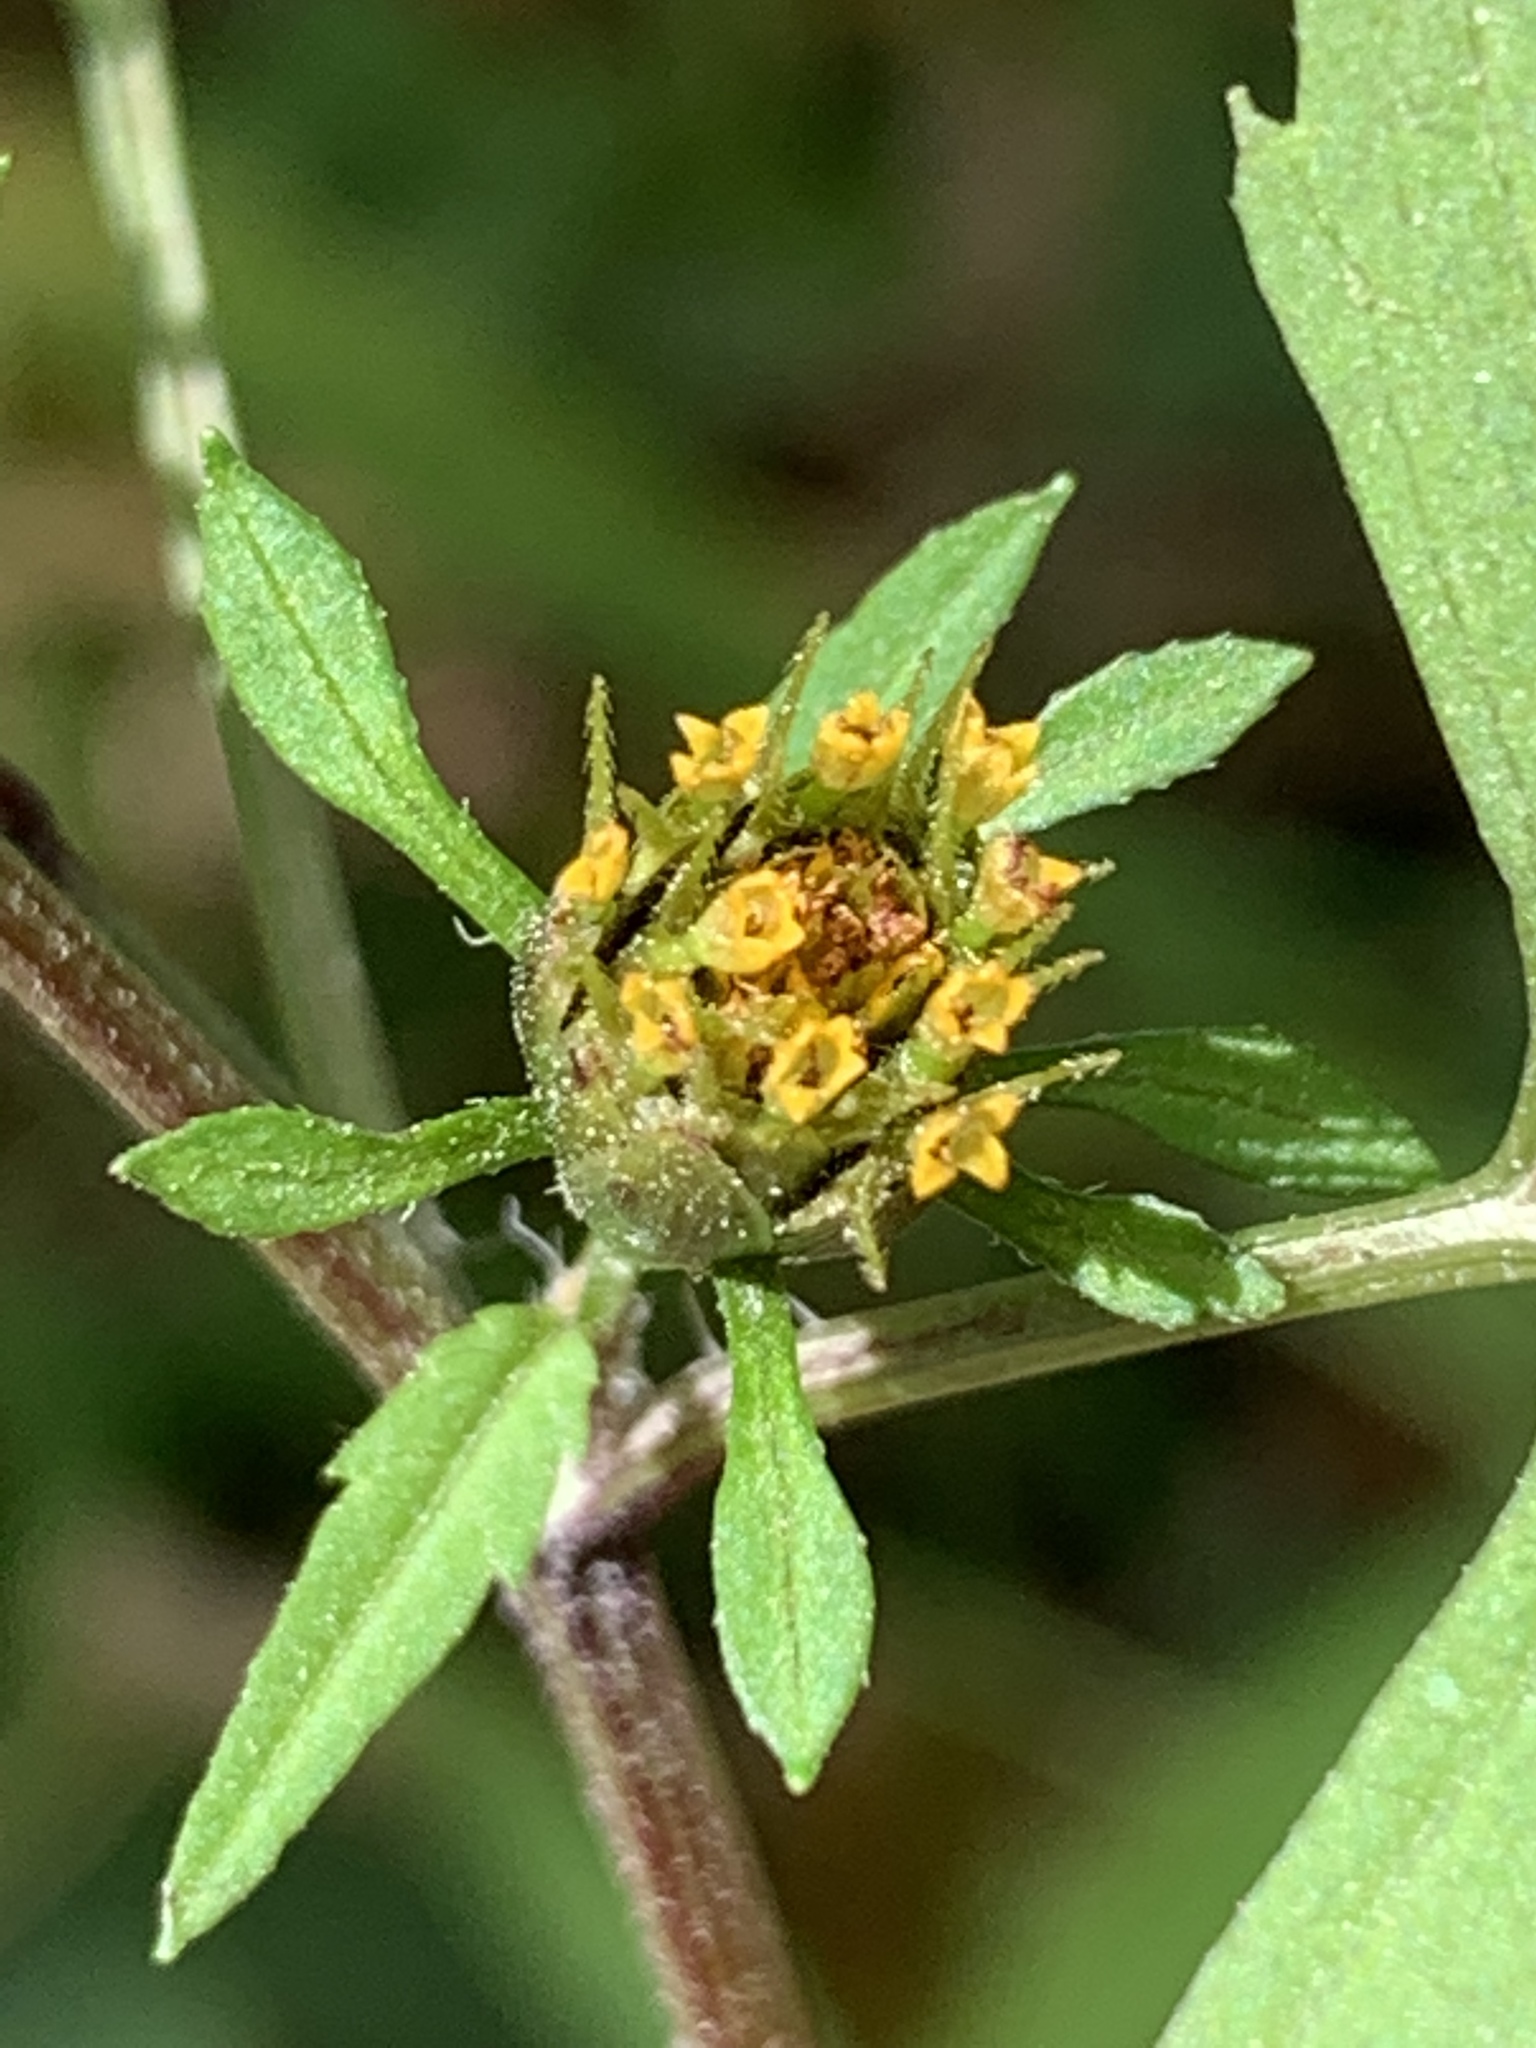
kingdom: Plantae
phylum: Tracheophyta
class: Magnoliopsida
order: Asterales
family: Asteraceae
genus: Bidens
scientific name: Bidens frondosa
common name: Beggarticks
